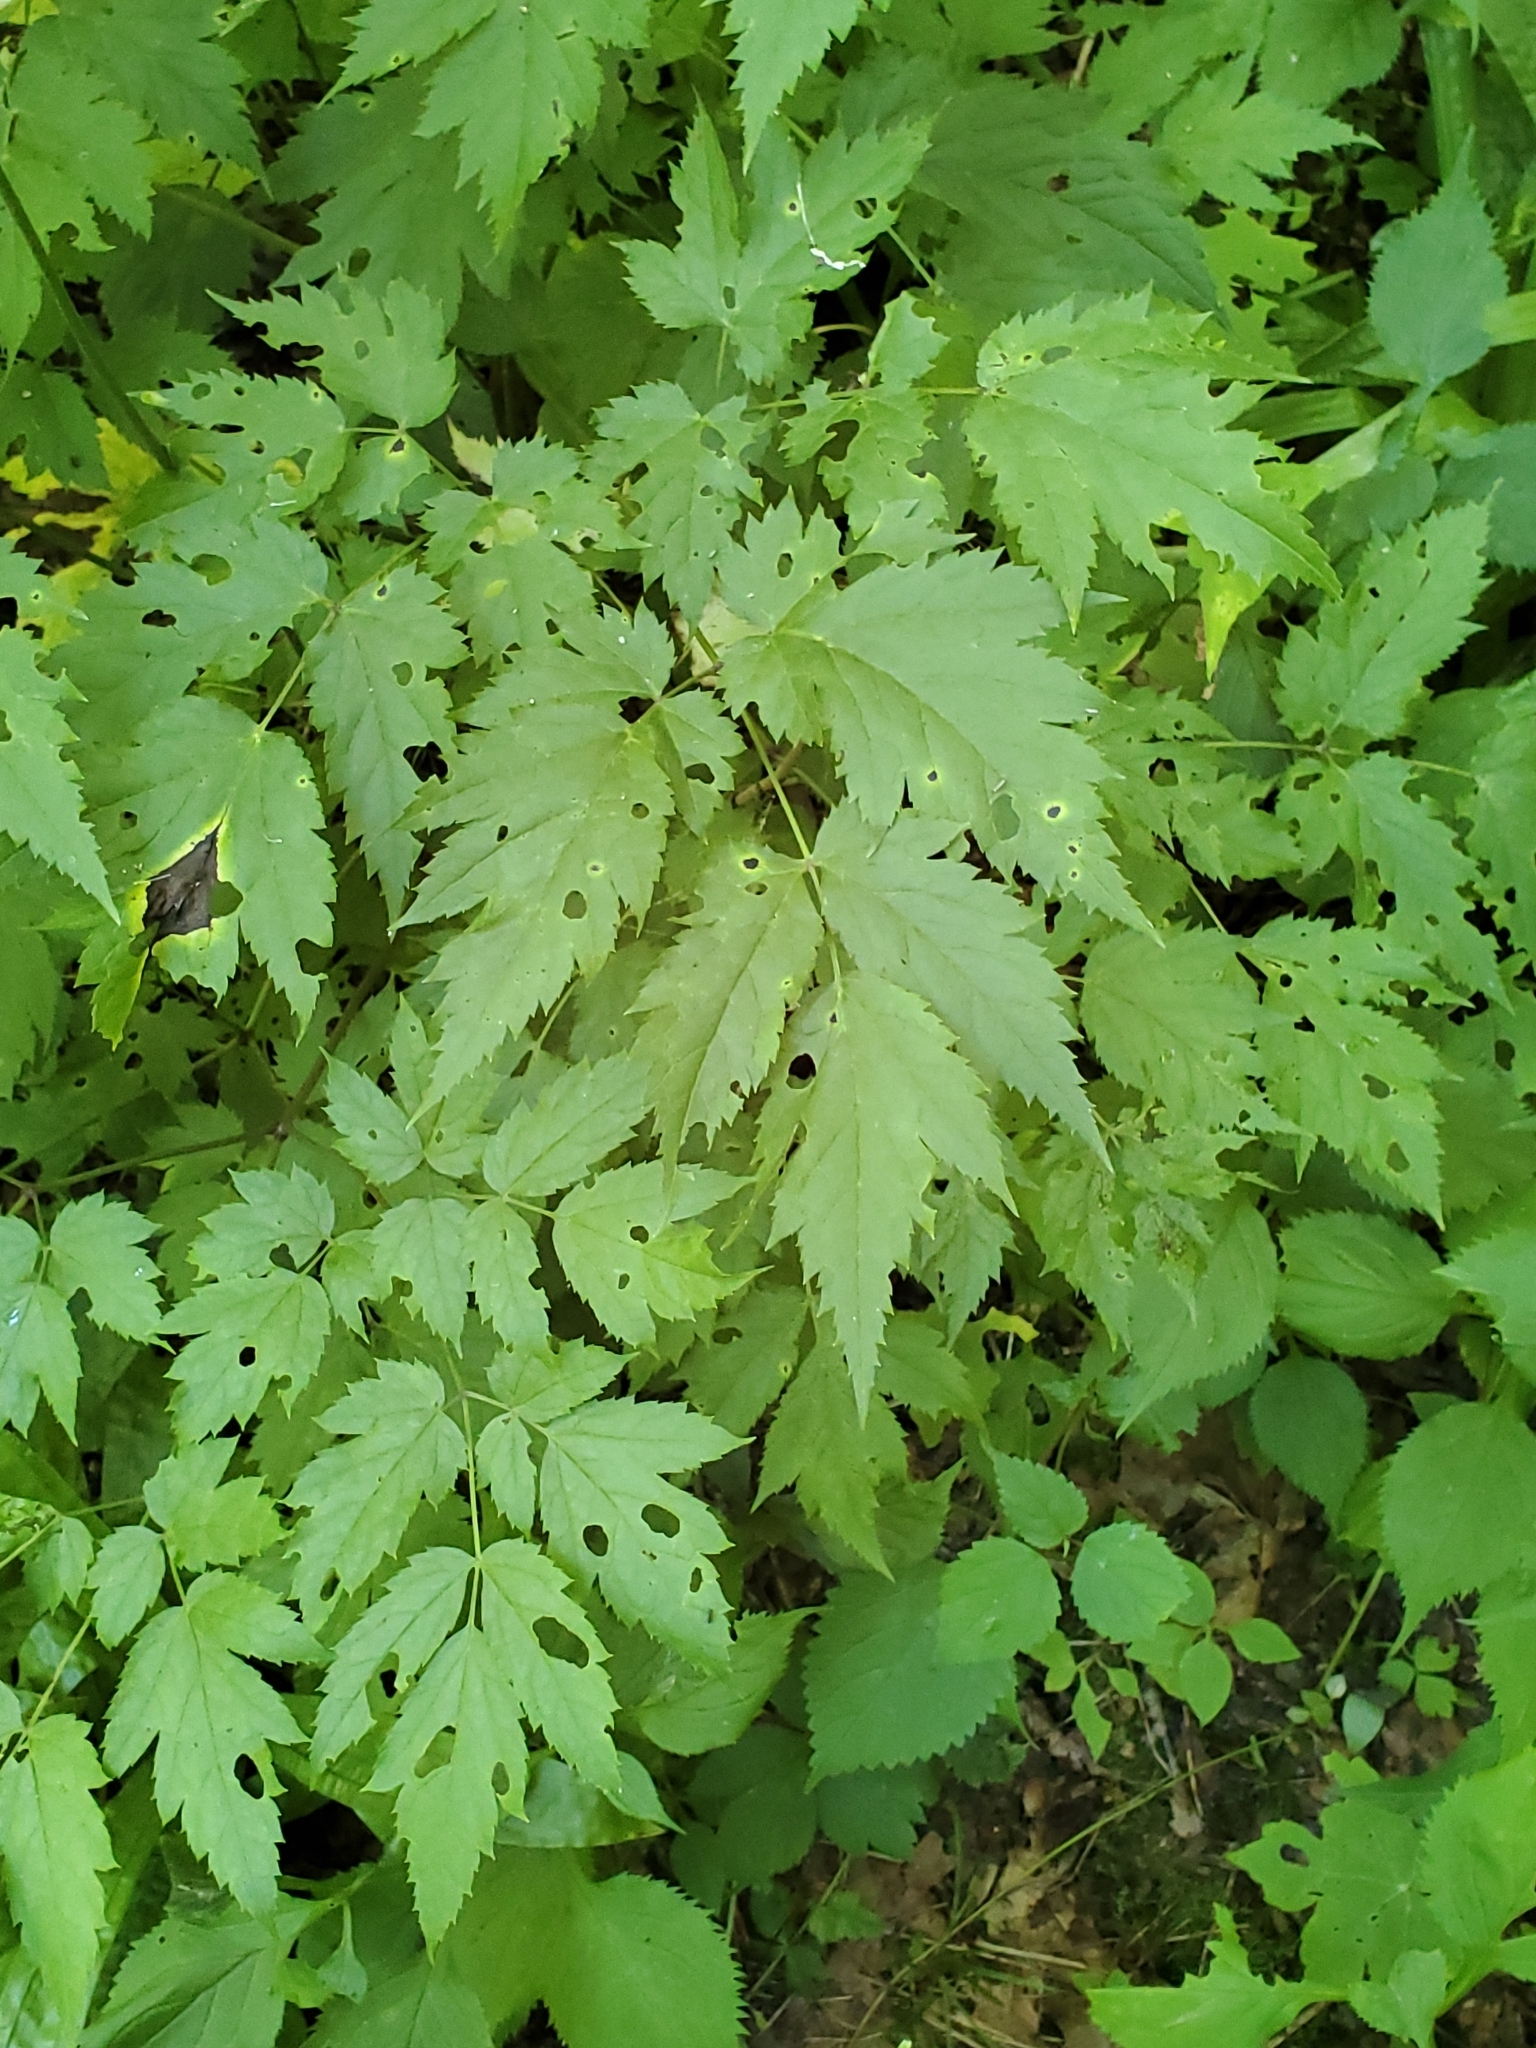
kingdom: Plantae
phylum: Tracheophyta
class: Magnoliopsida
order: Ranunculales
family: Ranunculaceae
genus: Actaea
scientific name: Actaea racemosa
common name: Black cohosh
